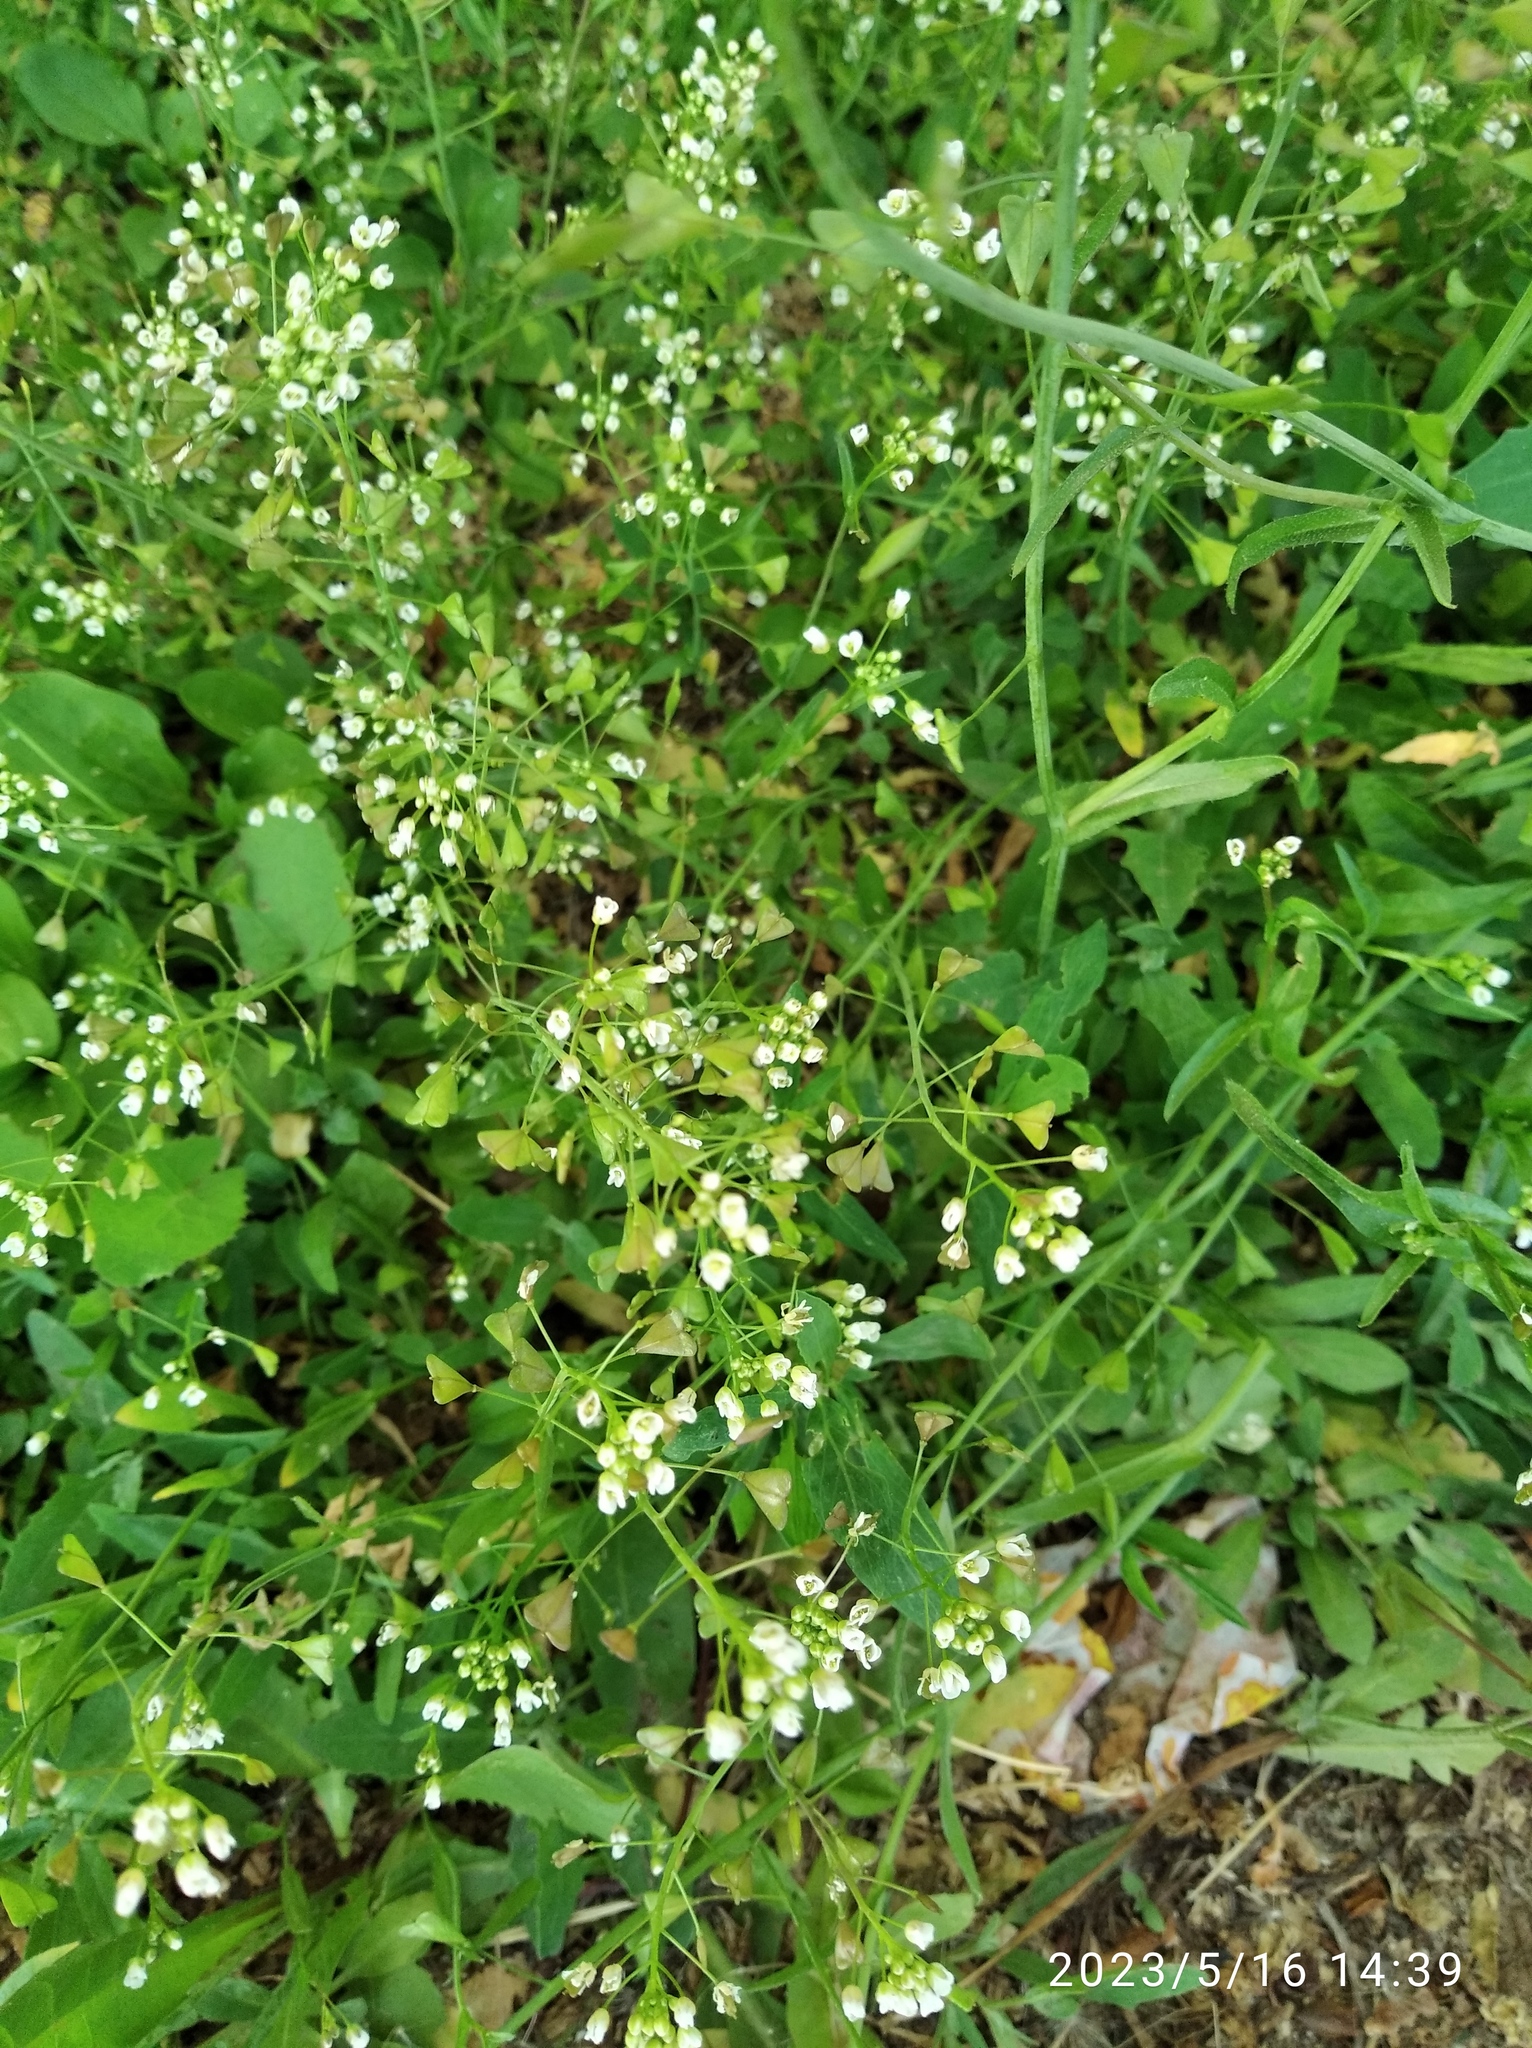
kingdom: Plantae
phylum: Tracheophyta
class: Magnoliopsida
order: Brassicales
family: Brassicaceae
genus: Capsella
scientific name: Capsella bursa-pastoris
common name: Shepherd's purse
